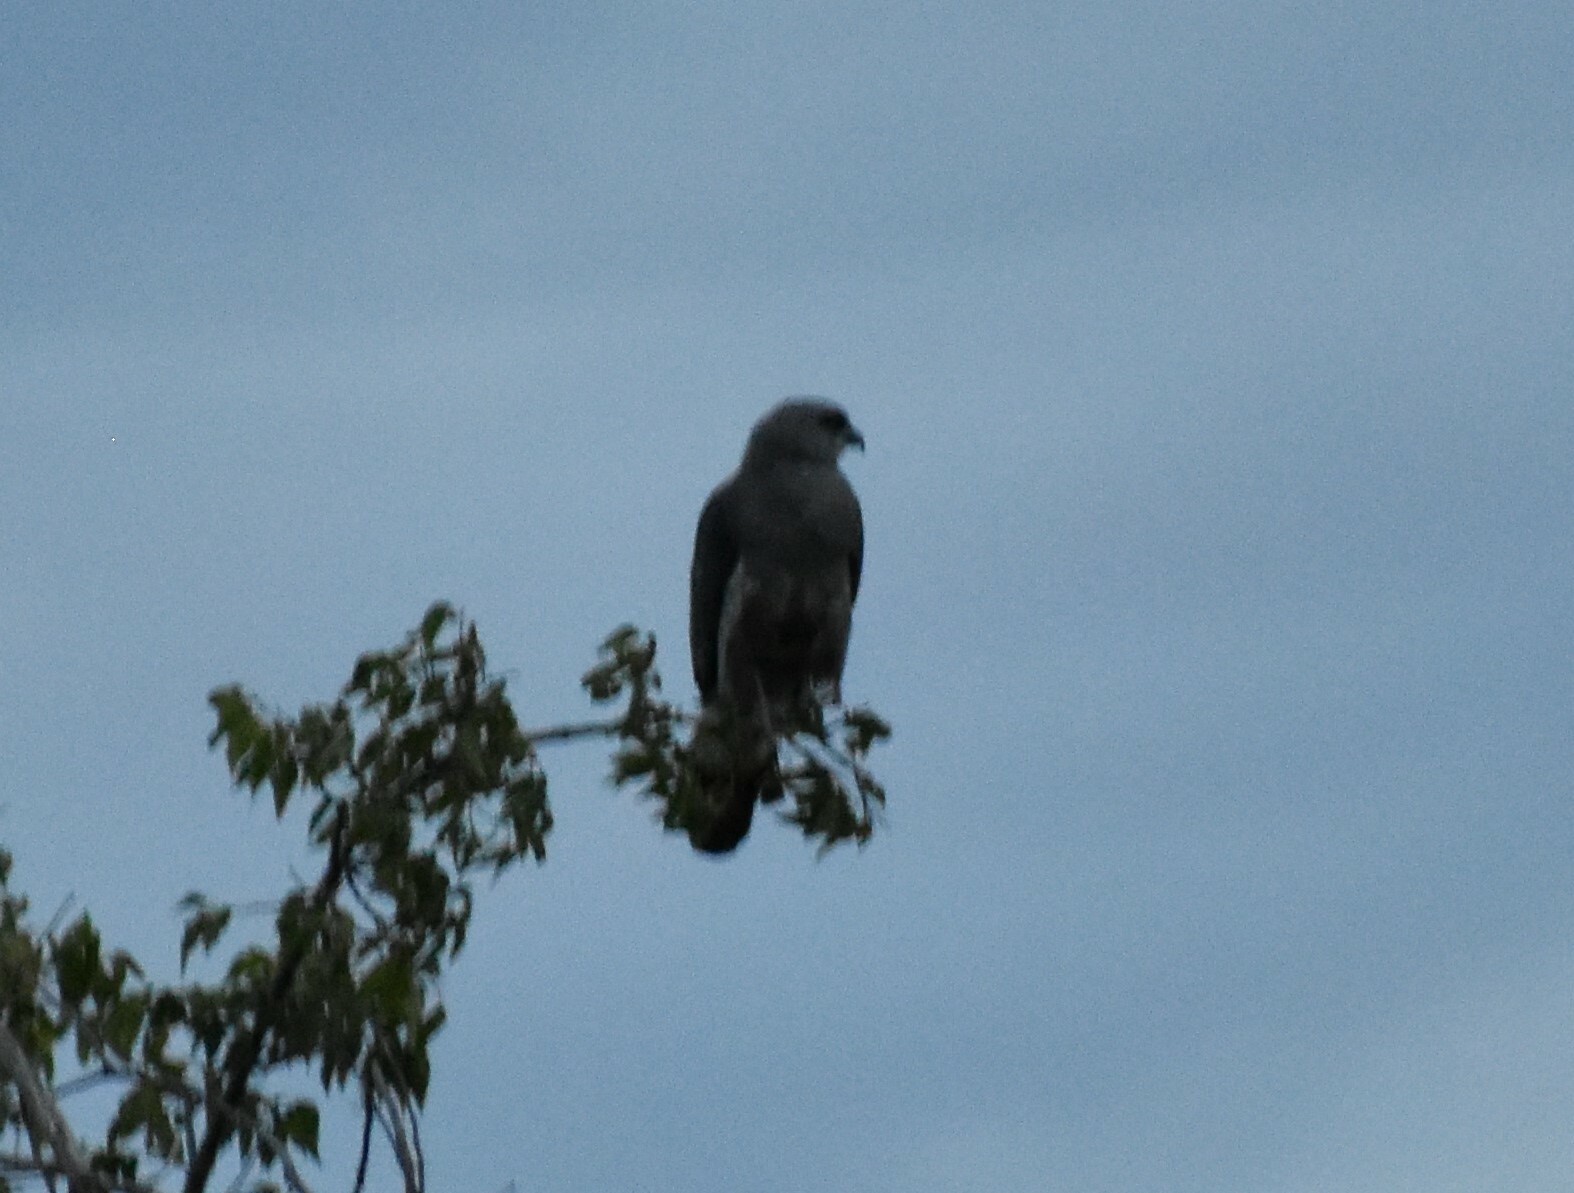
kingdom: Animalia
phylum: Chordata
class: Aves
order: Accipitriformes
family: Accipitridae
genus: Ictinia
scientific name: Ictinia mississippiensis
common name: Mississippi kite
